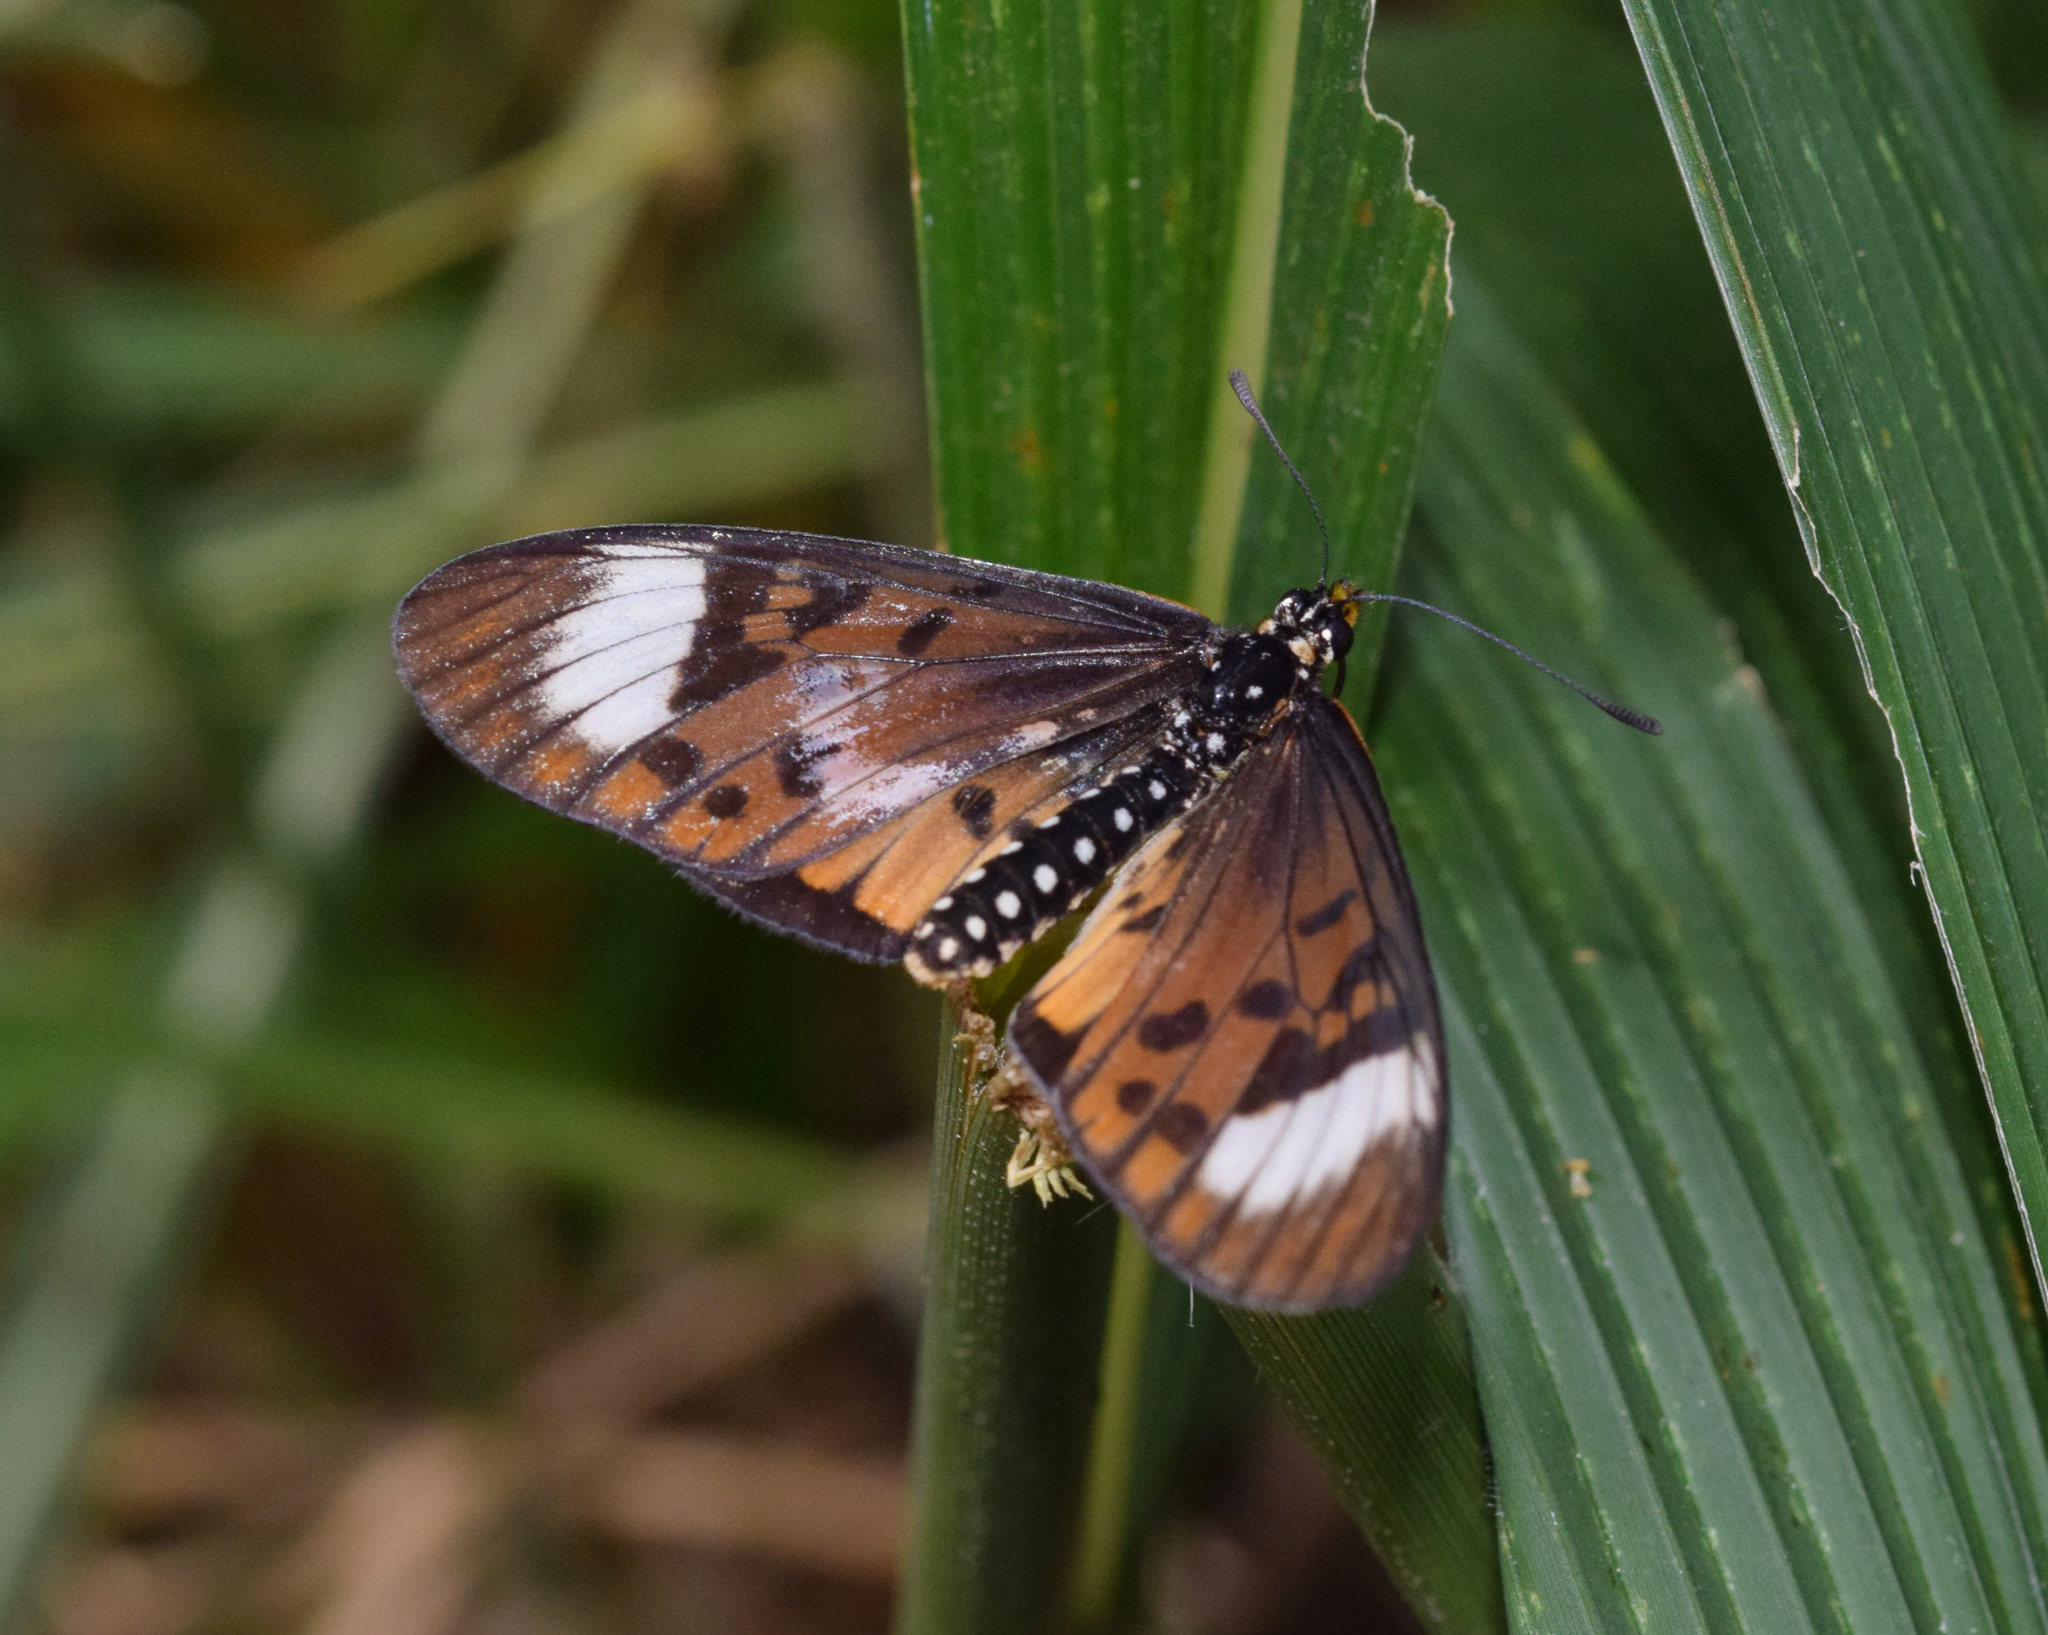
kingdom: Animalia
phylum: Arthropoda
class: Insecta
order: Lepidoptera
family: Nymphalidae
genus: Rubraea
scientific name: Rubraea
